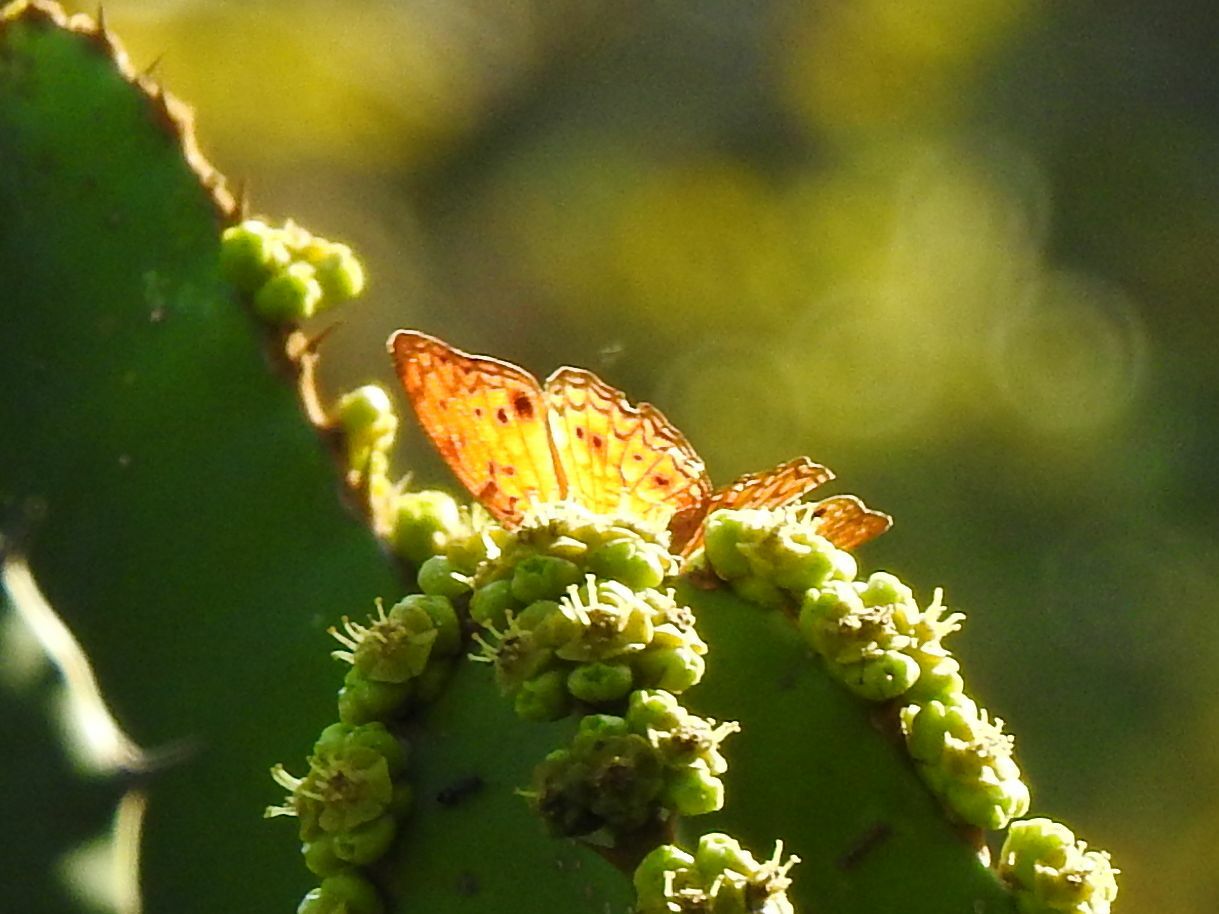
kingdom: Animalia
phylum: Arthropoda
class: Insecta
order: Lepidoptera
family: Nymphalidae
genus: Phalanta
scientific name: Phalanta phalantha
